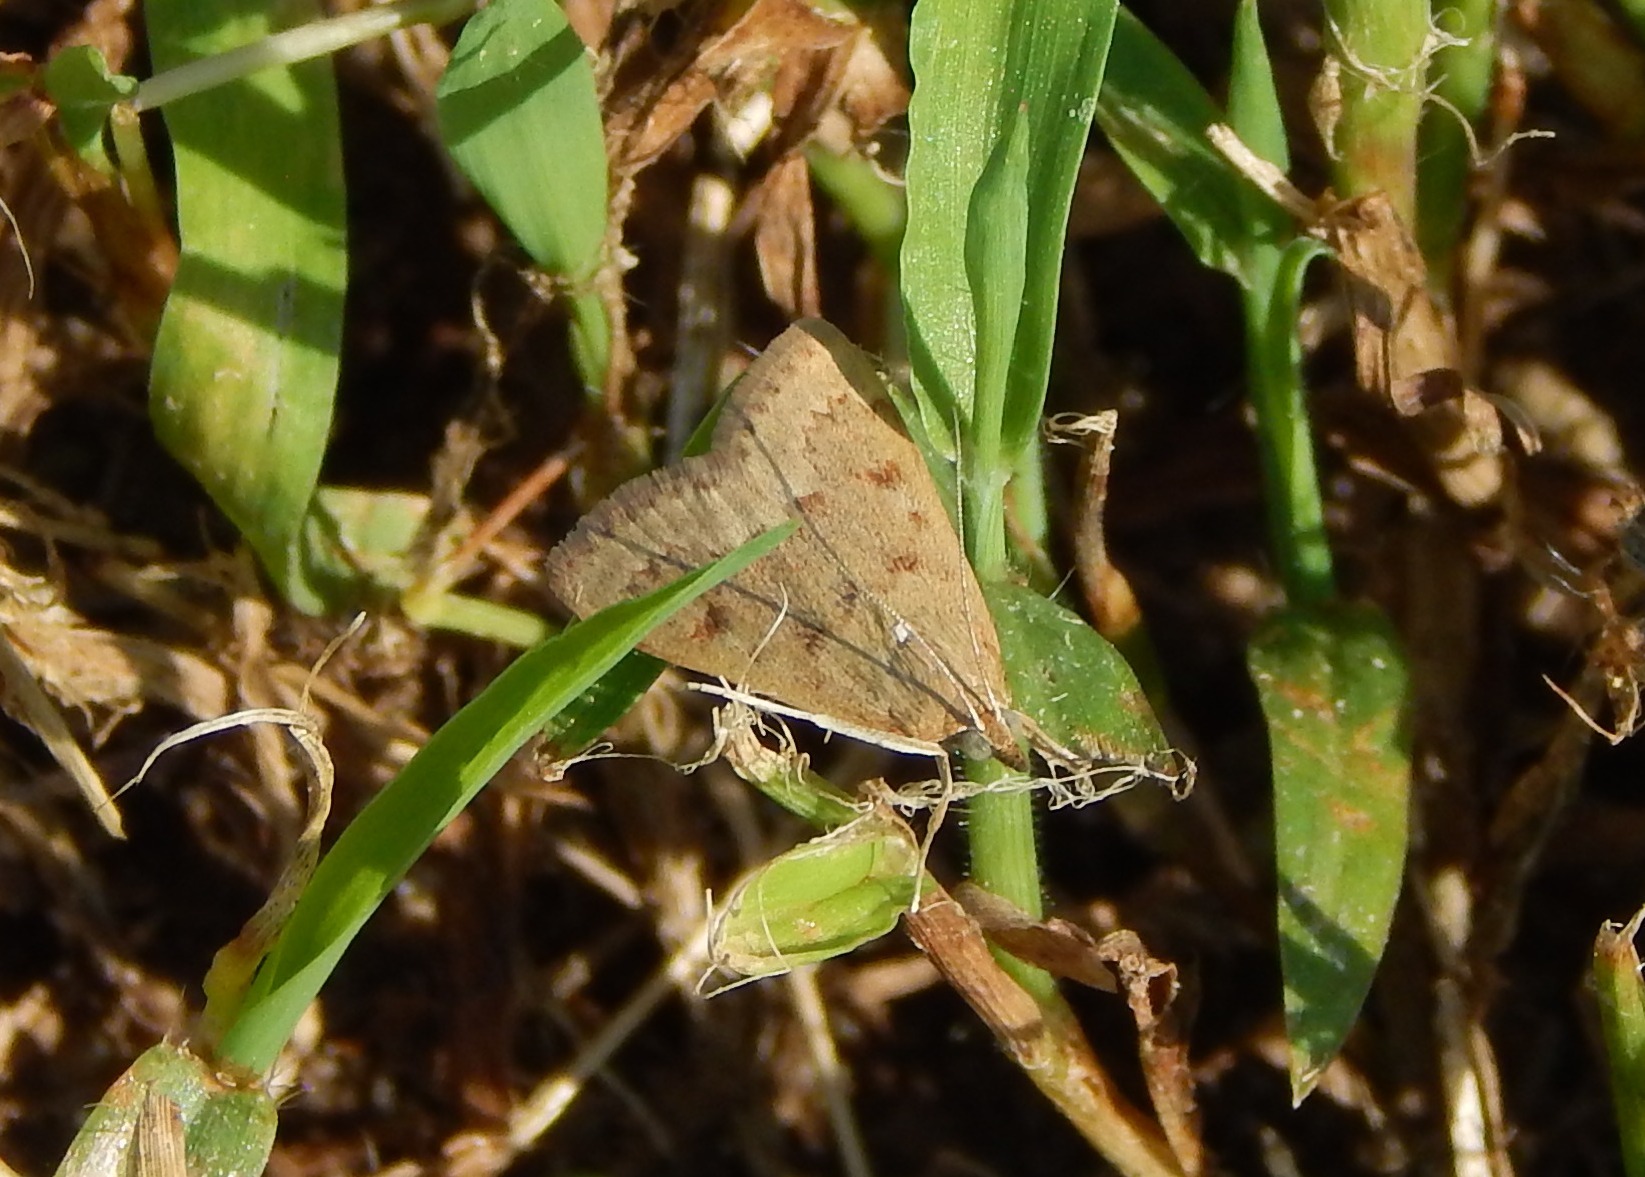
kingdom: Animalia
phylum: Arthropoda
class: Insecta
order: Lepidoptera
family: Crambidae
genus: Achyra
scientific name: Achyra rantalis
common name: Garden webworm
